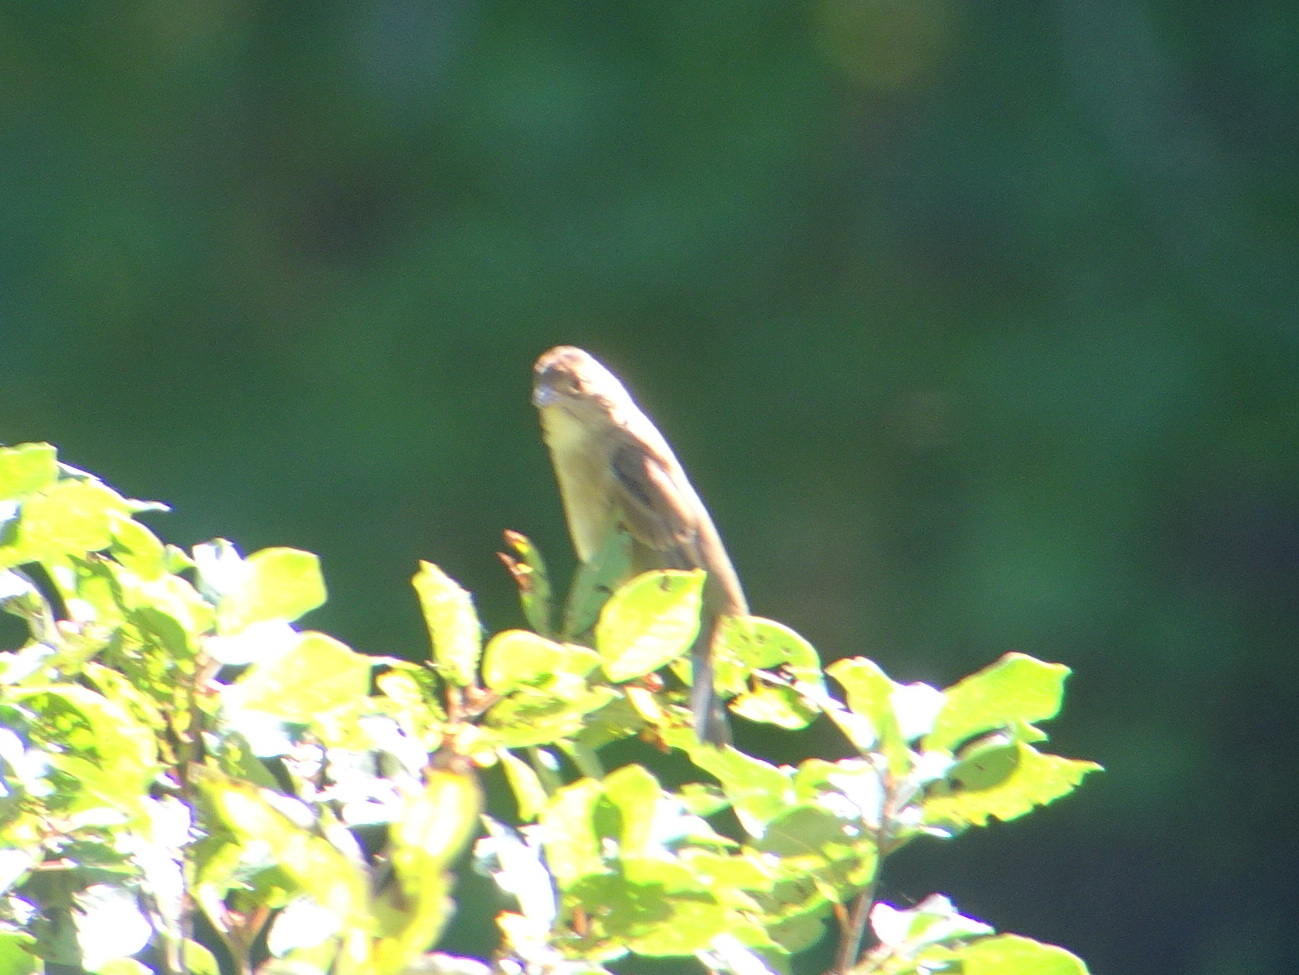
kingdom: Animalia
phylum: Chordata
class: Aves
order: Passeriformes
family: Cardinalidae
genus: Passerina
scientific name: Passerina cyanea
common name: Indigo bunting
